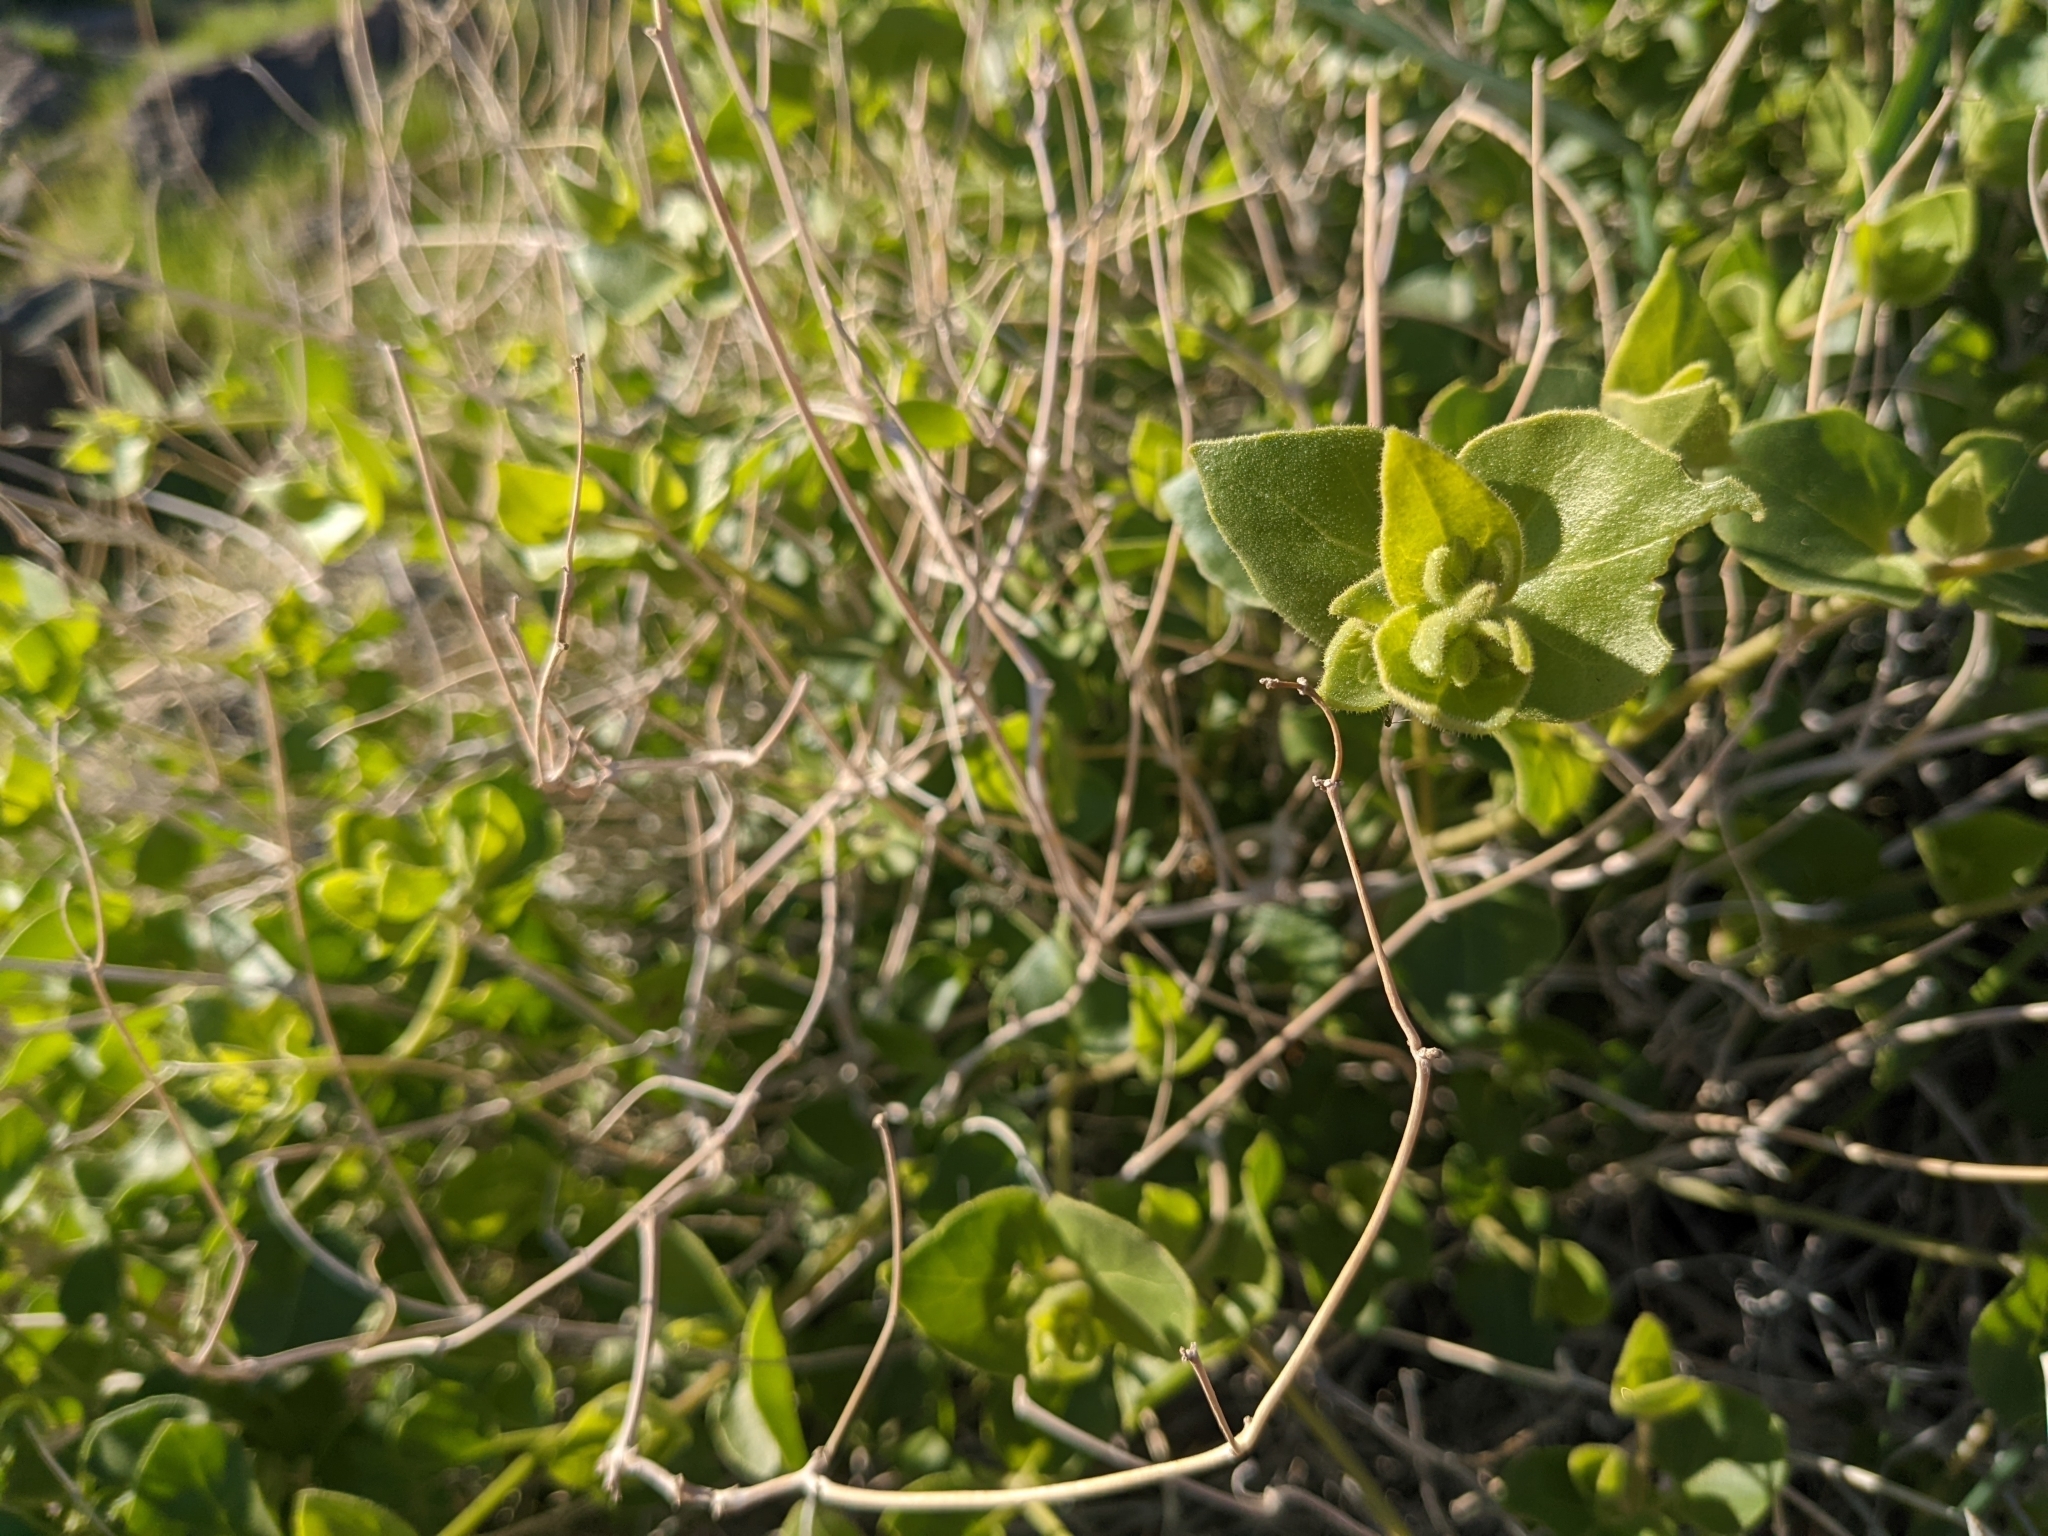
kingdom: Plantae
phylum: Tracheophyta
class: Magnoliopsida
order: Caryophyllales
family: Nyctaginaceae
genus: Mirabilis
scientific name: Mirabilis laevis
